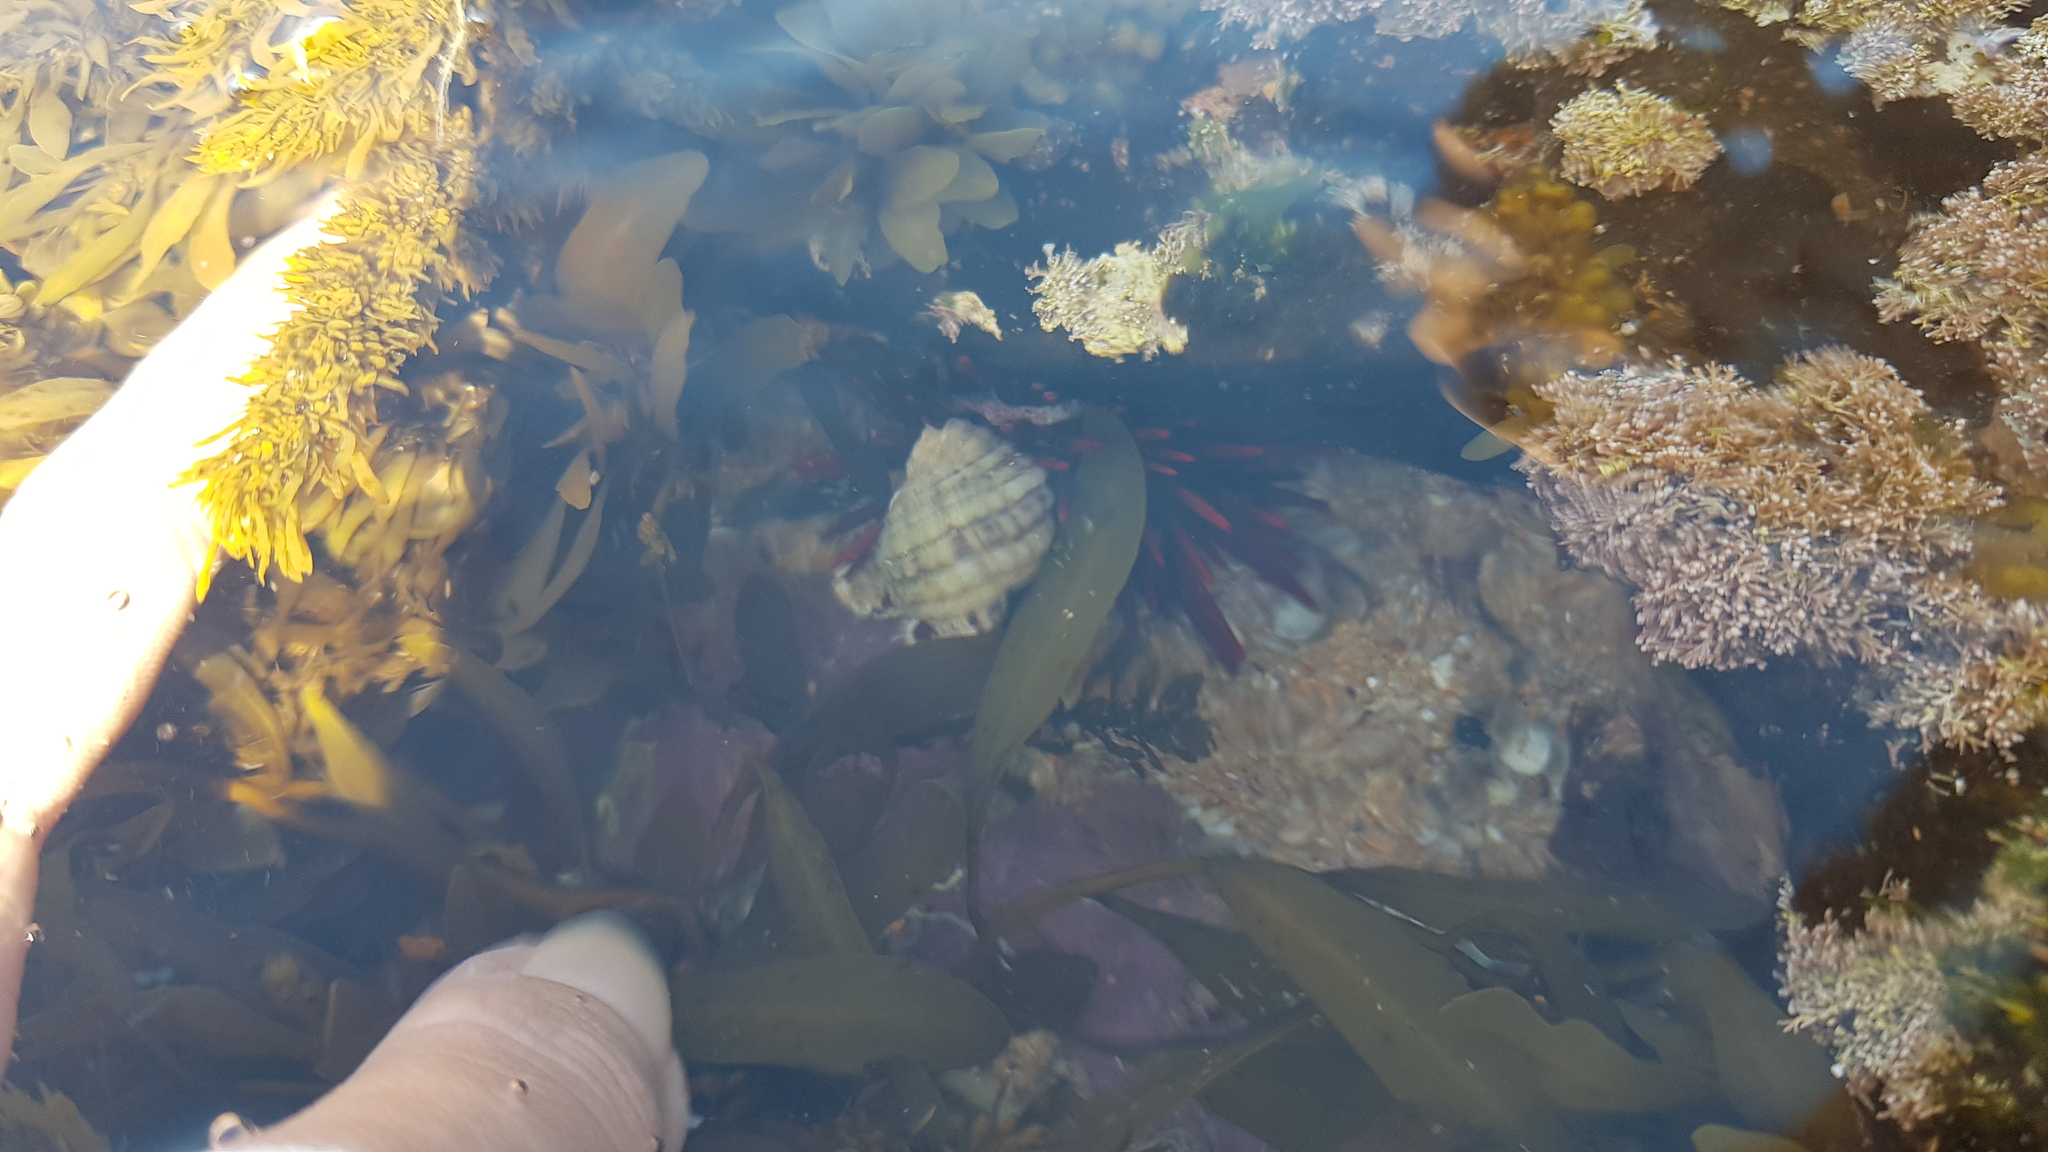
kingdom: Animalia
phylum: Echinodermata
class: Echinoidea
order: Camarodonta
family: Echinometridae
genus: Heliocidaris
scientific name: Heliocidaris tuberculata
